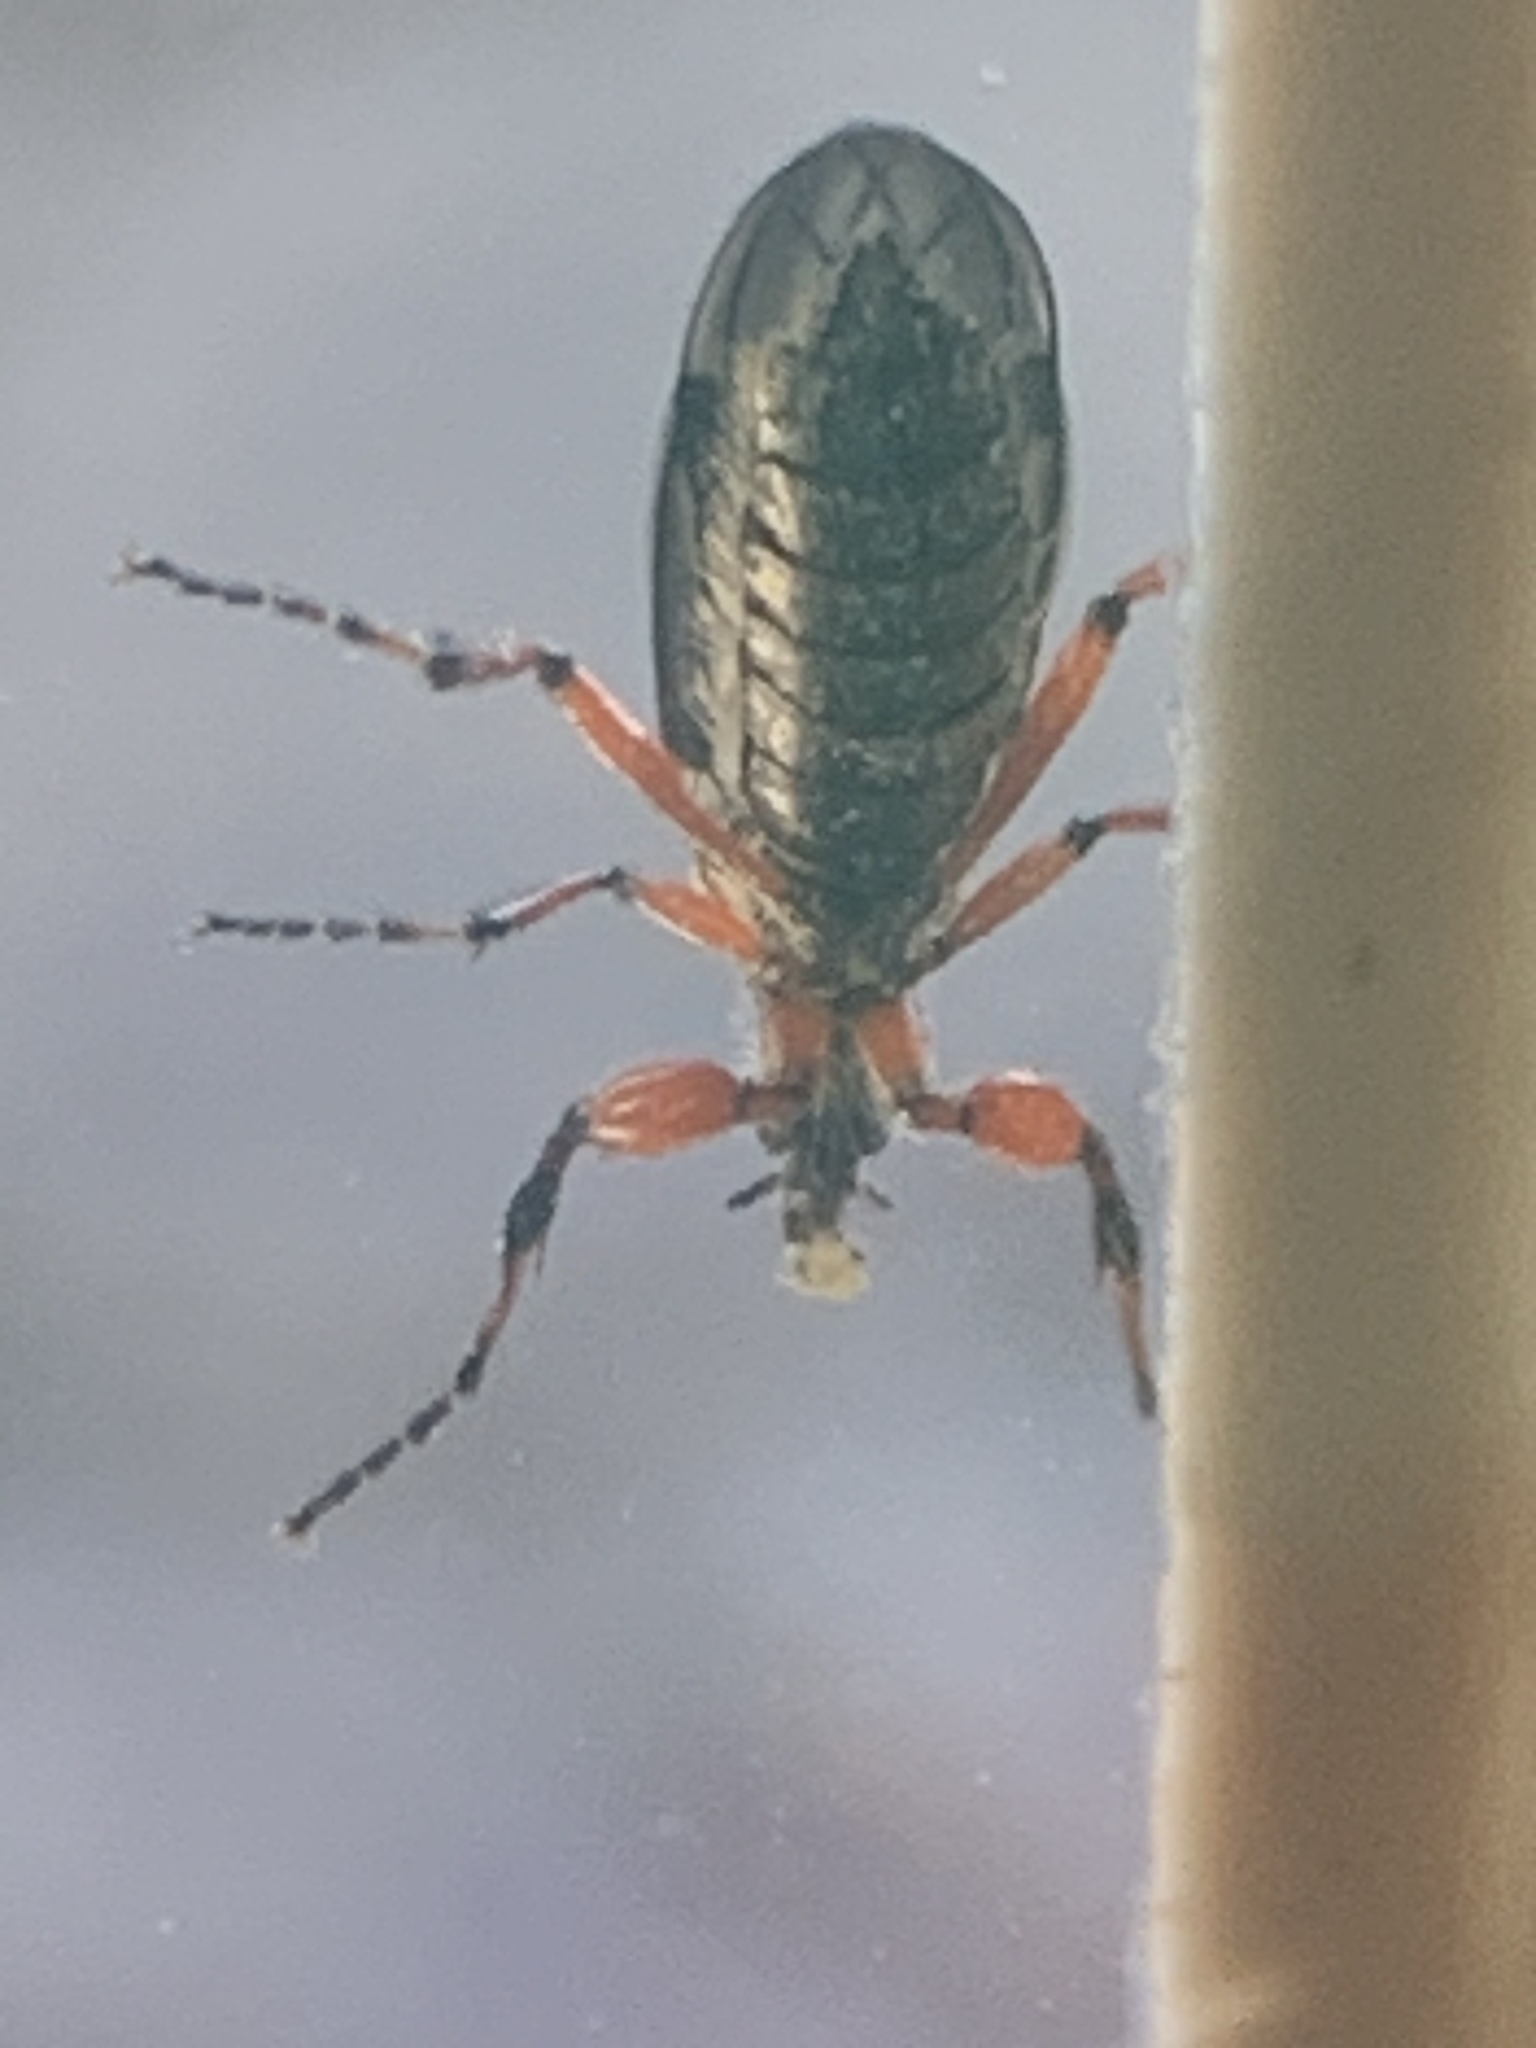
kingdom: Animalia
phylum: Arthropoda
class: Insecta
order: Diptera
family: Bibionidae
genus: Bibio
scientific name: Bibio
